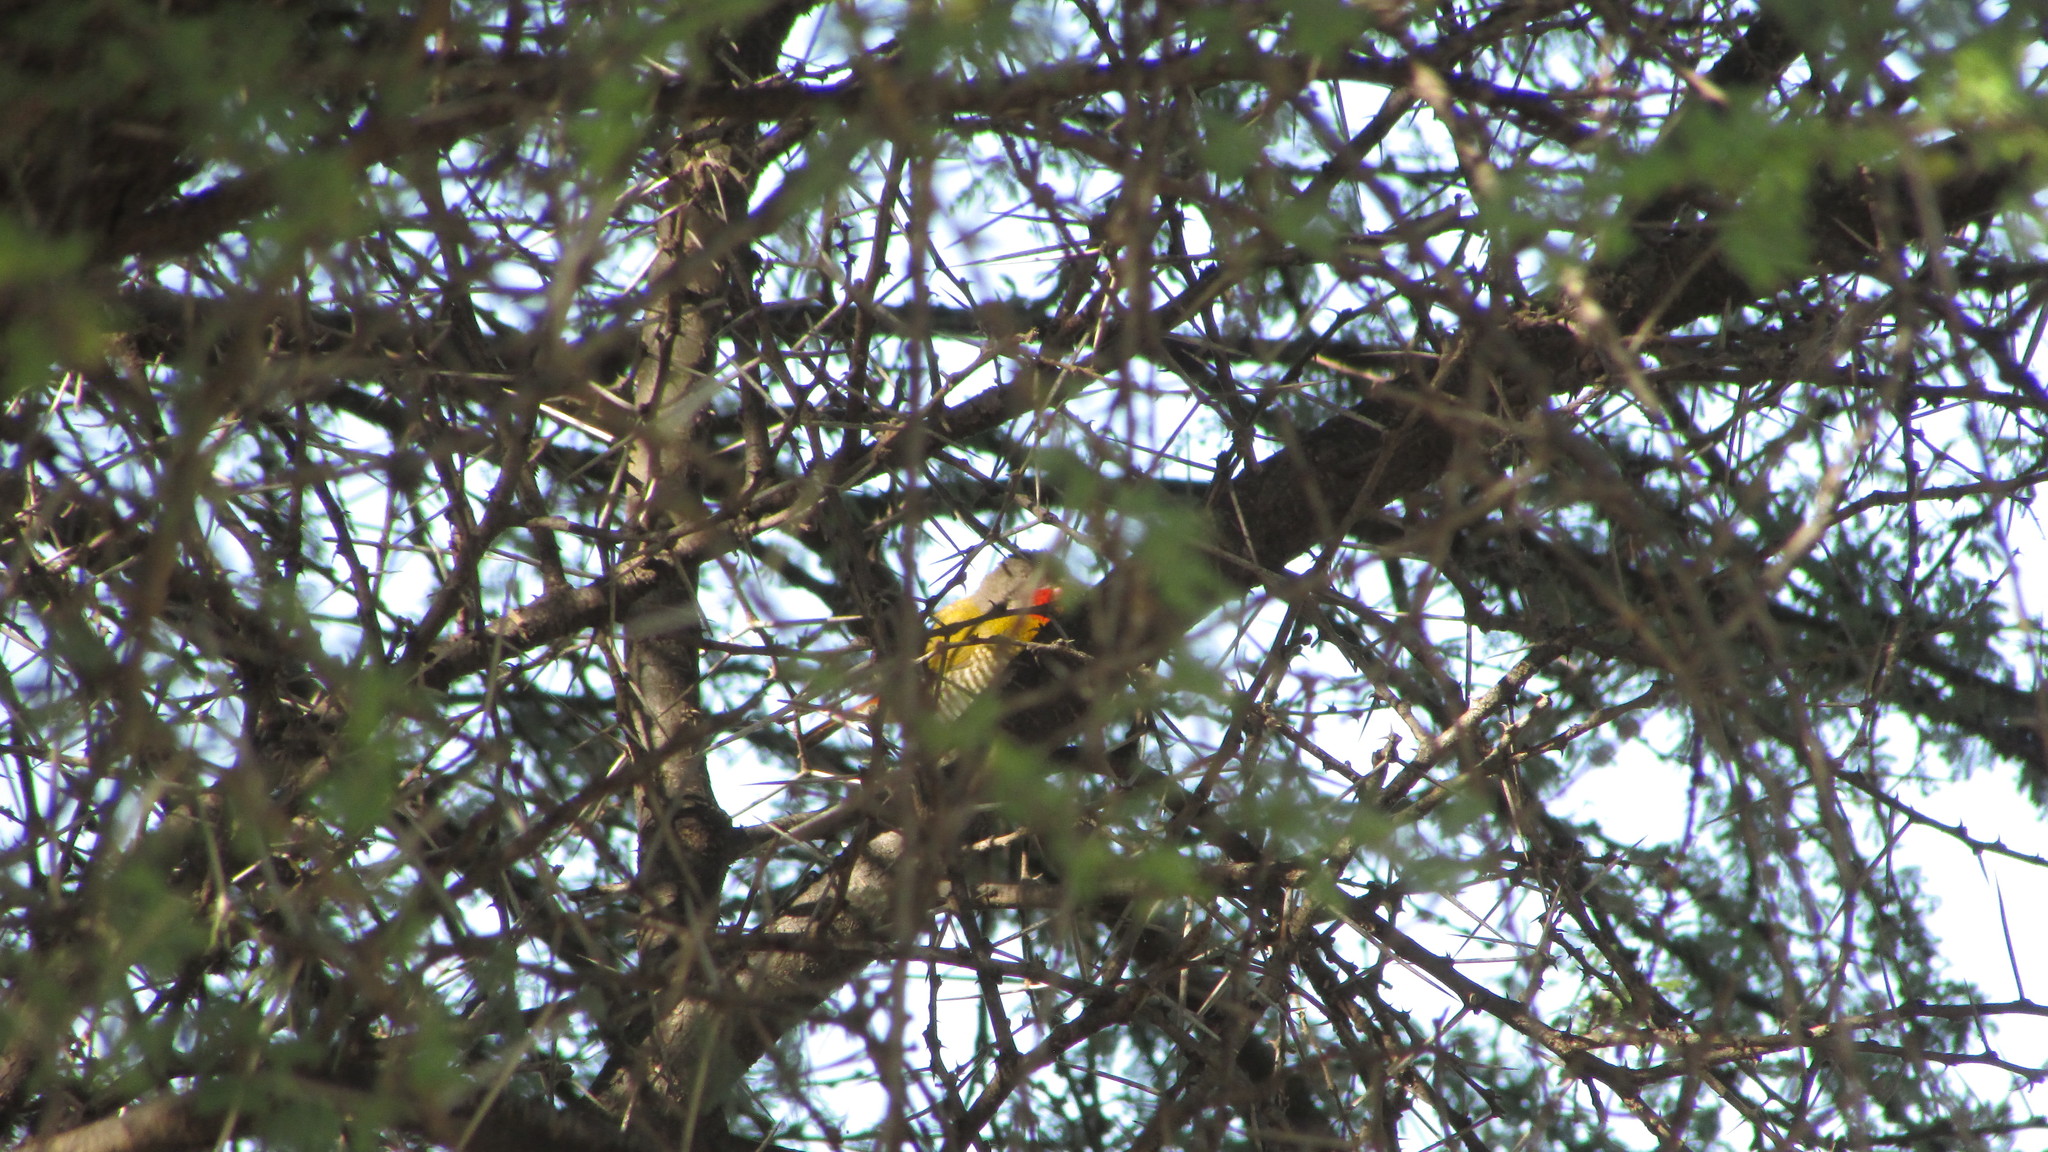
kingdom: Animalia
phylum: Chordata
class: Aves
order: Passeriformes
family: Estrildidae
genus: Pytilia
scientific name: Pytilia melba
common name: Green-winged pytilia
